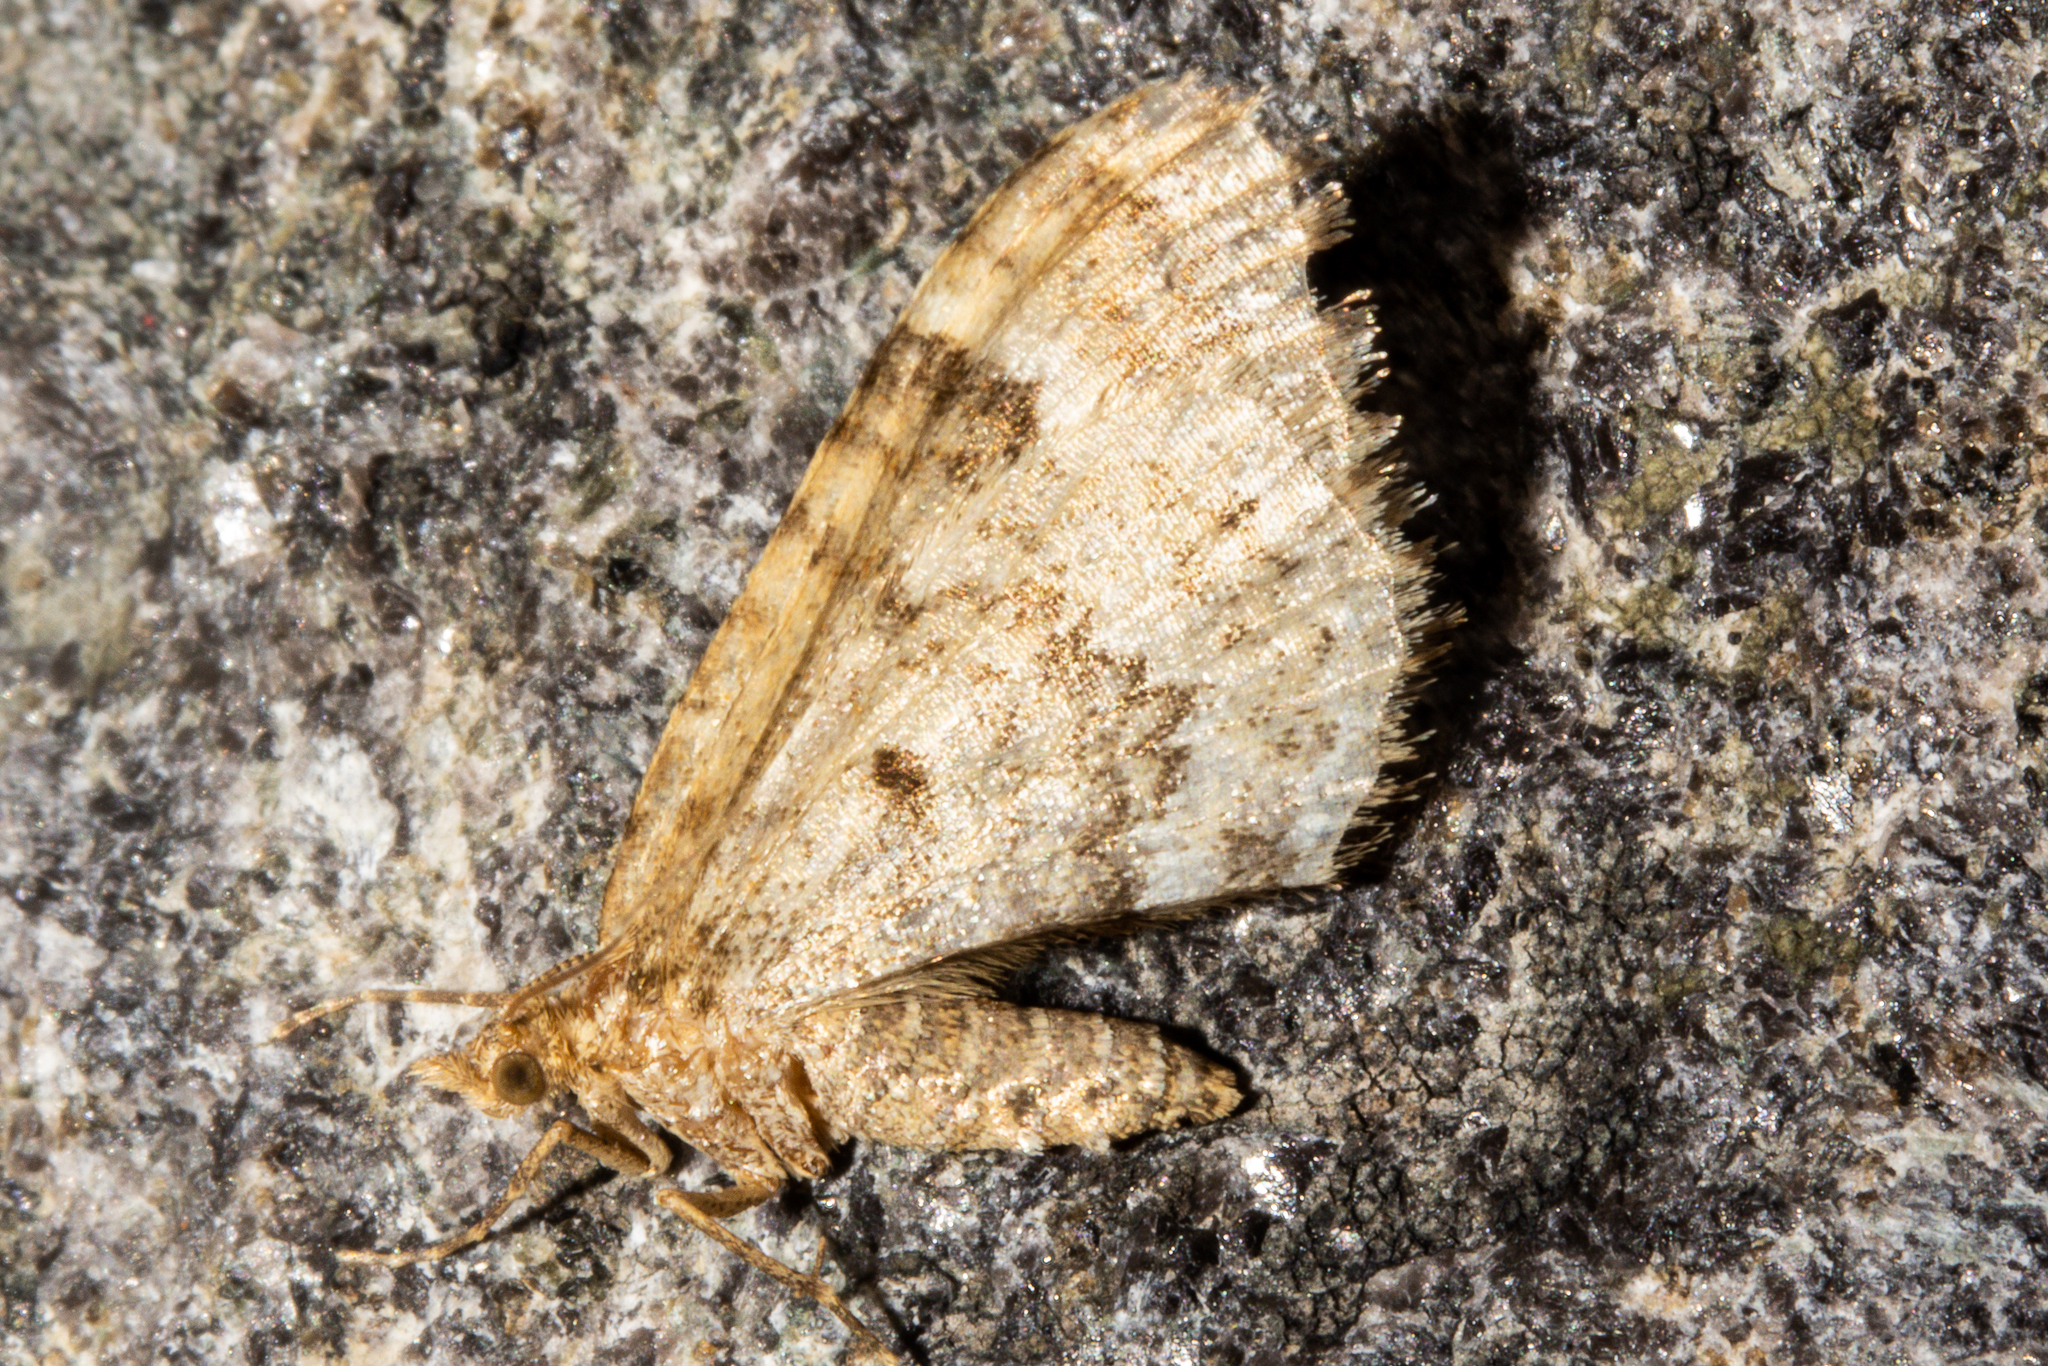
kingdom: Animalia
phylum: Arthropoda
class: Insecta
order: Lepidoptera
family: Geometridae
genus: Asaphodes
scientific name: Asaphodes chionogramma
